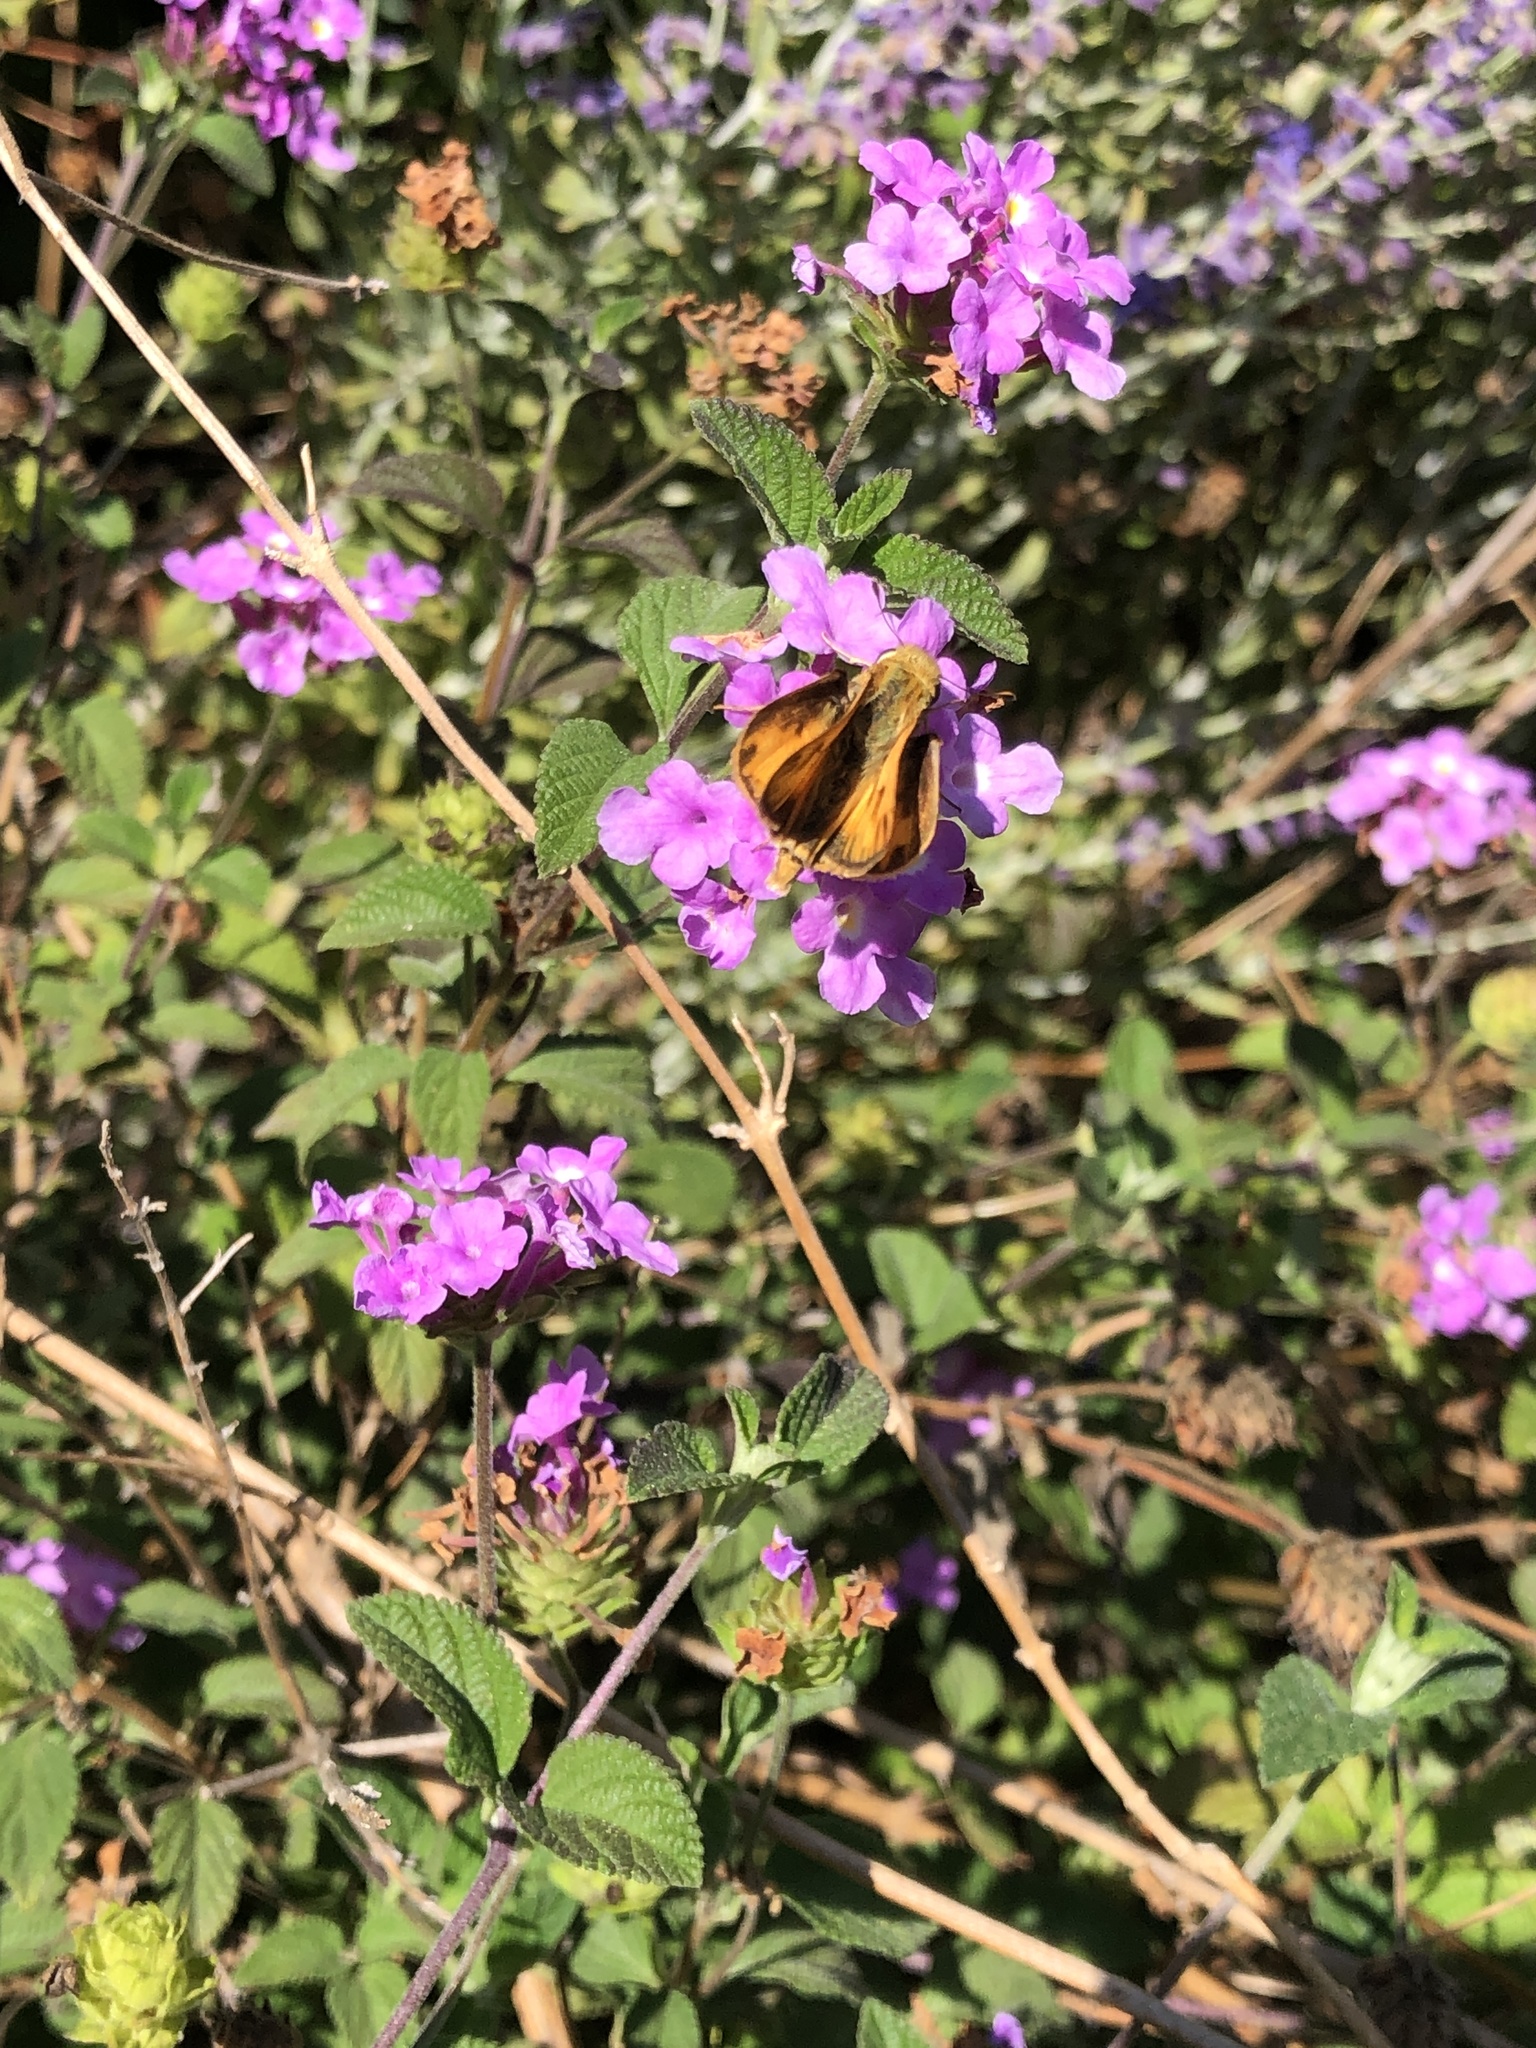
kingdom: Animalia
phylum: Arthropoda
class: Insecta
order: Lepidoptera
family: Hesperiidae
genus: Hylephila
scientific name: Hylephila phyleus
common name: Fiery skipper
